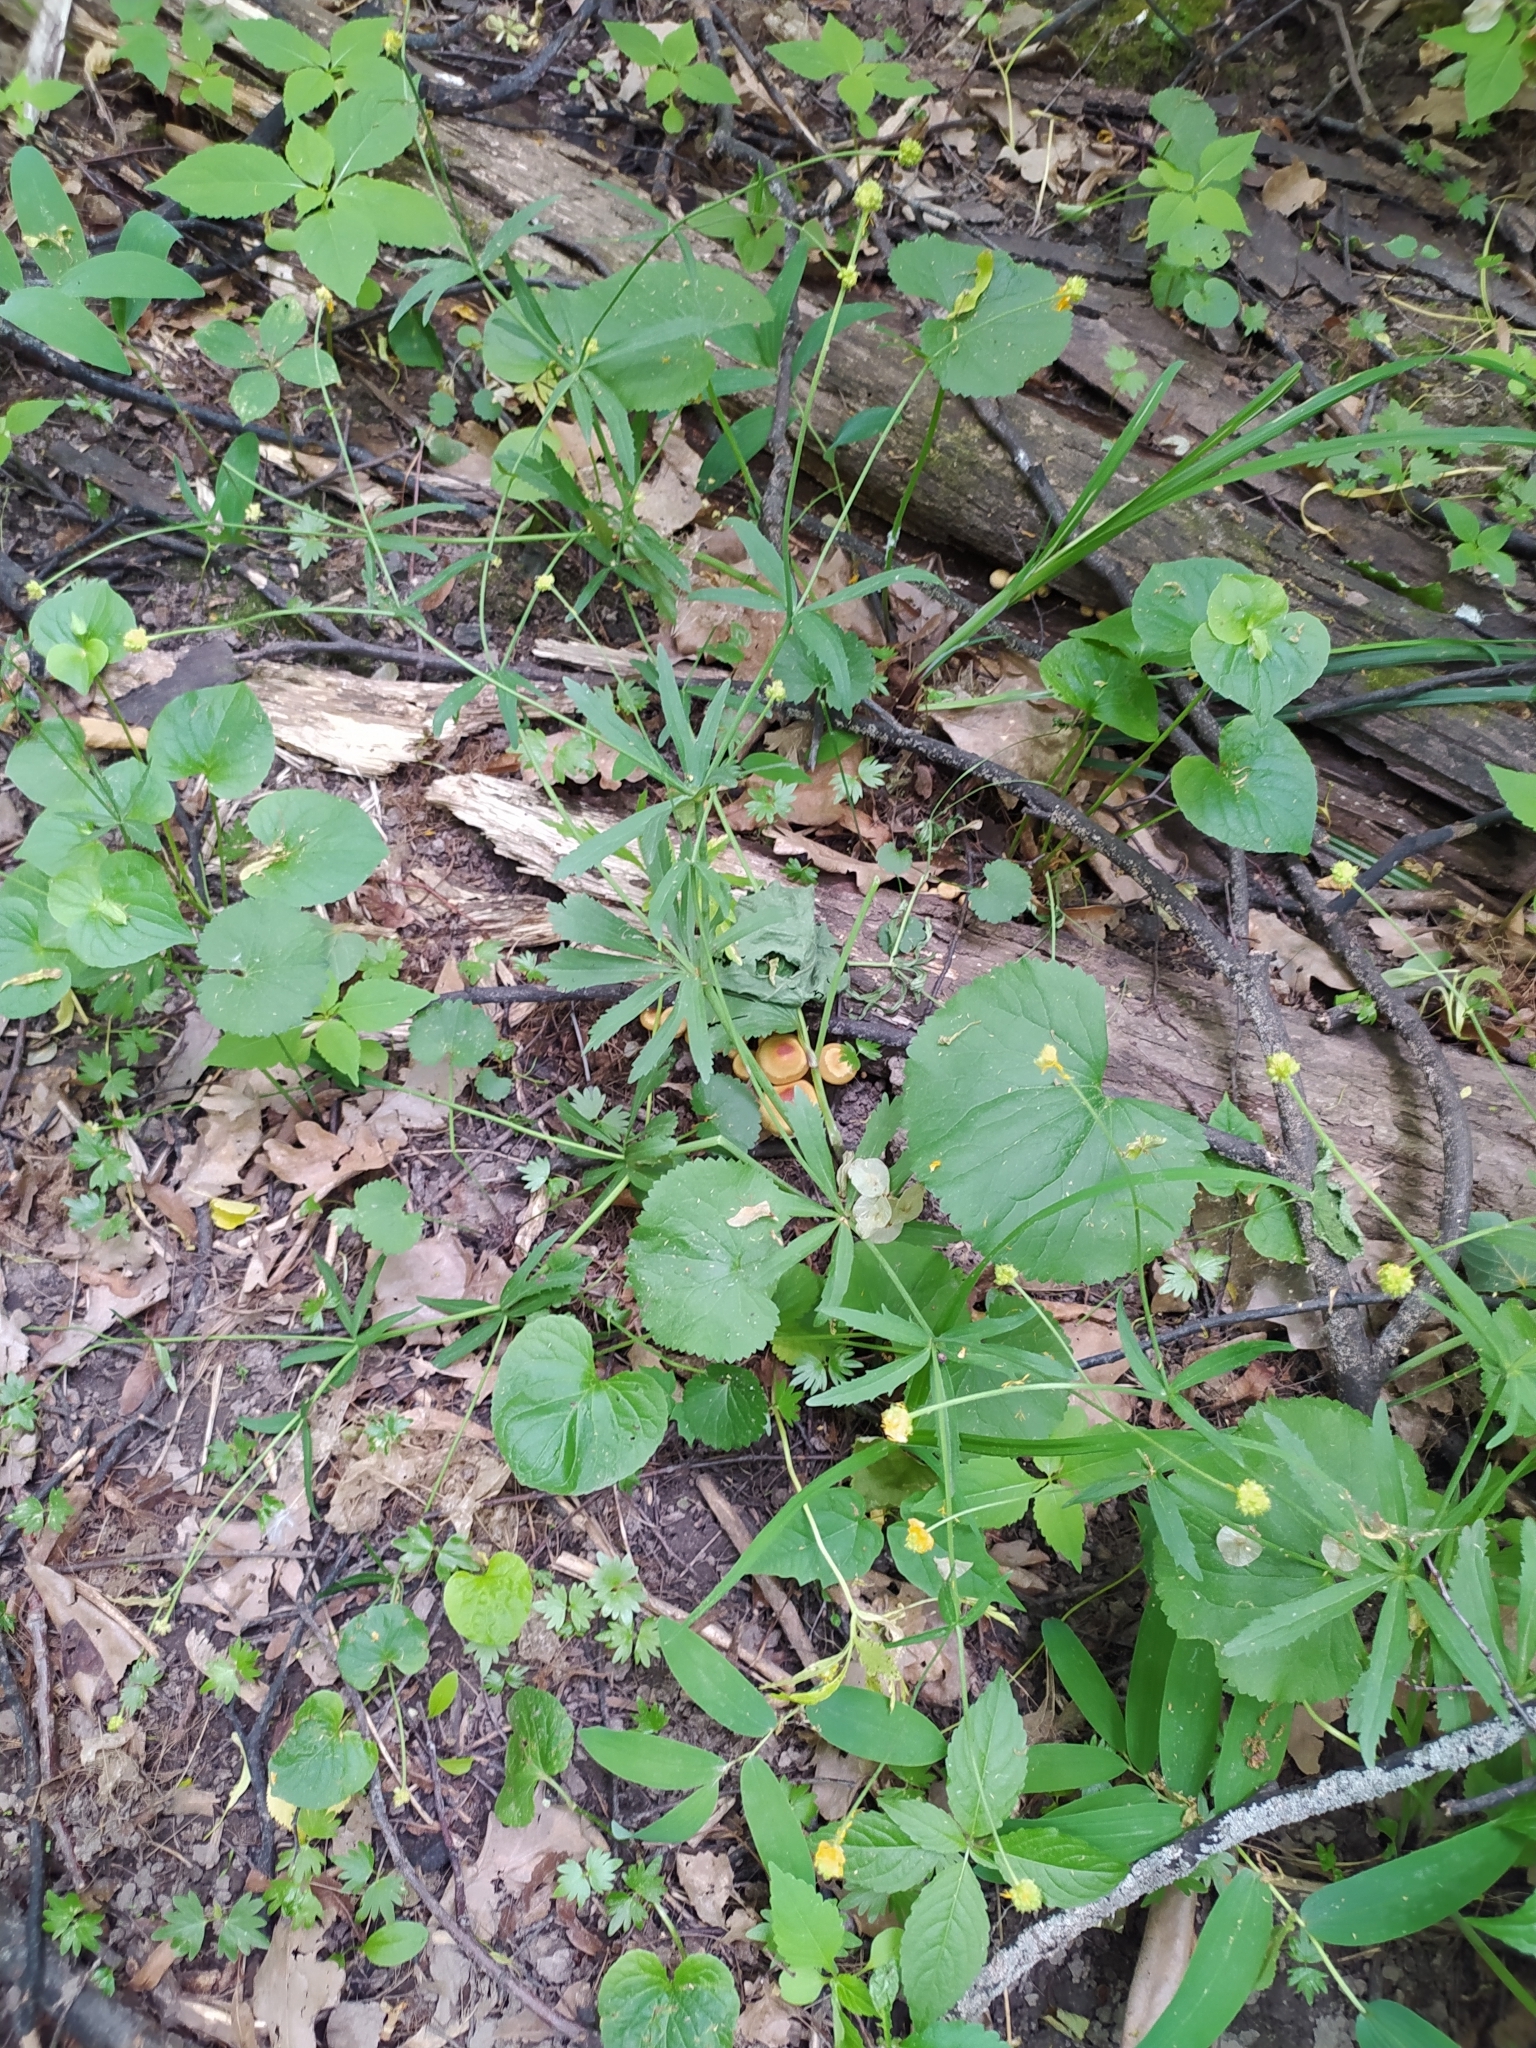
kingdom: Plantae
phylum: Tracheophyta
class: Magnoliopsida
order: Ranunculales
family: Ranunculaceae
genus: Ranunculus
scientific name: Ranunculus cassubicus
